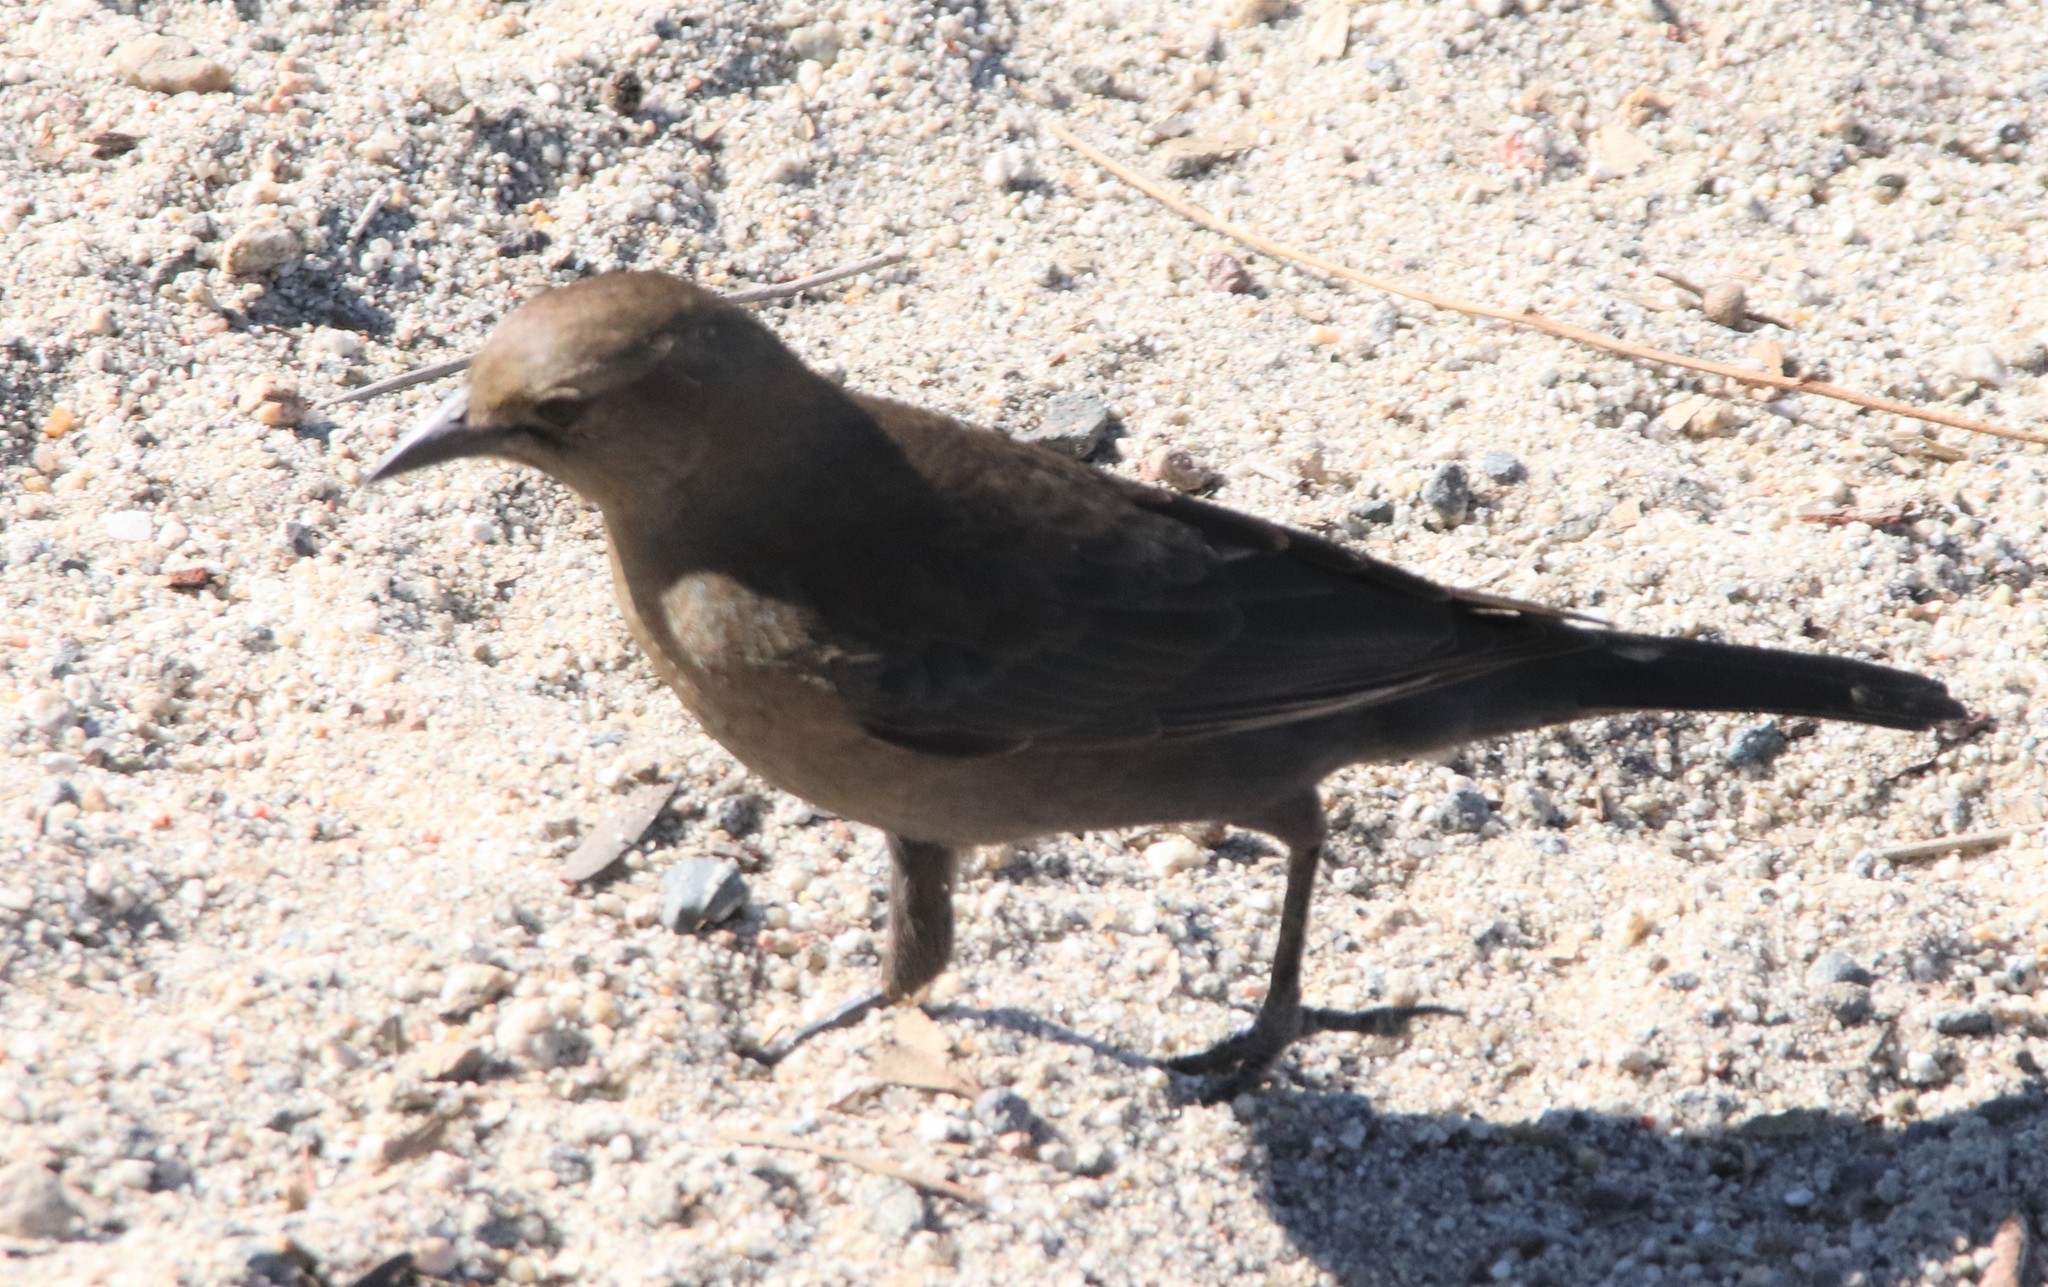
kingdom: Animalia
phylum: Chordata
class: Aves
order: Passeriformes
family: Icteridae
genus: Euphagus
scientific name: Euphagus cyanocephalus
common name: Brewer's blackbird
